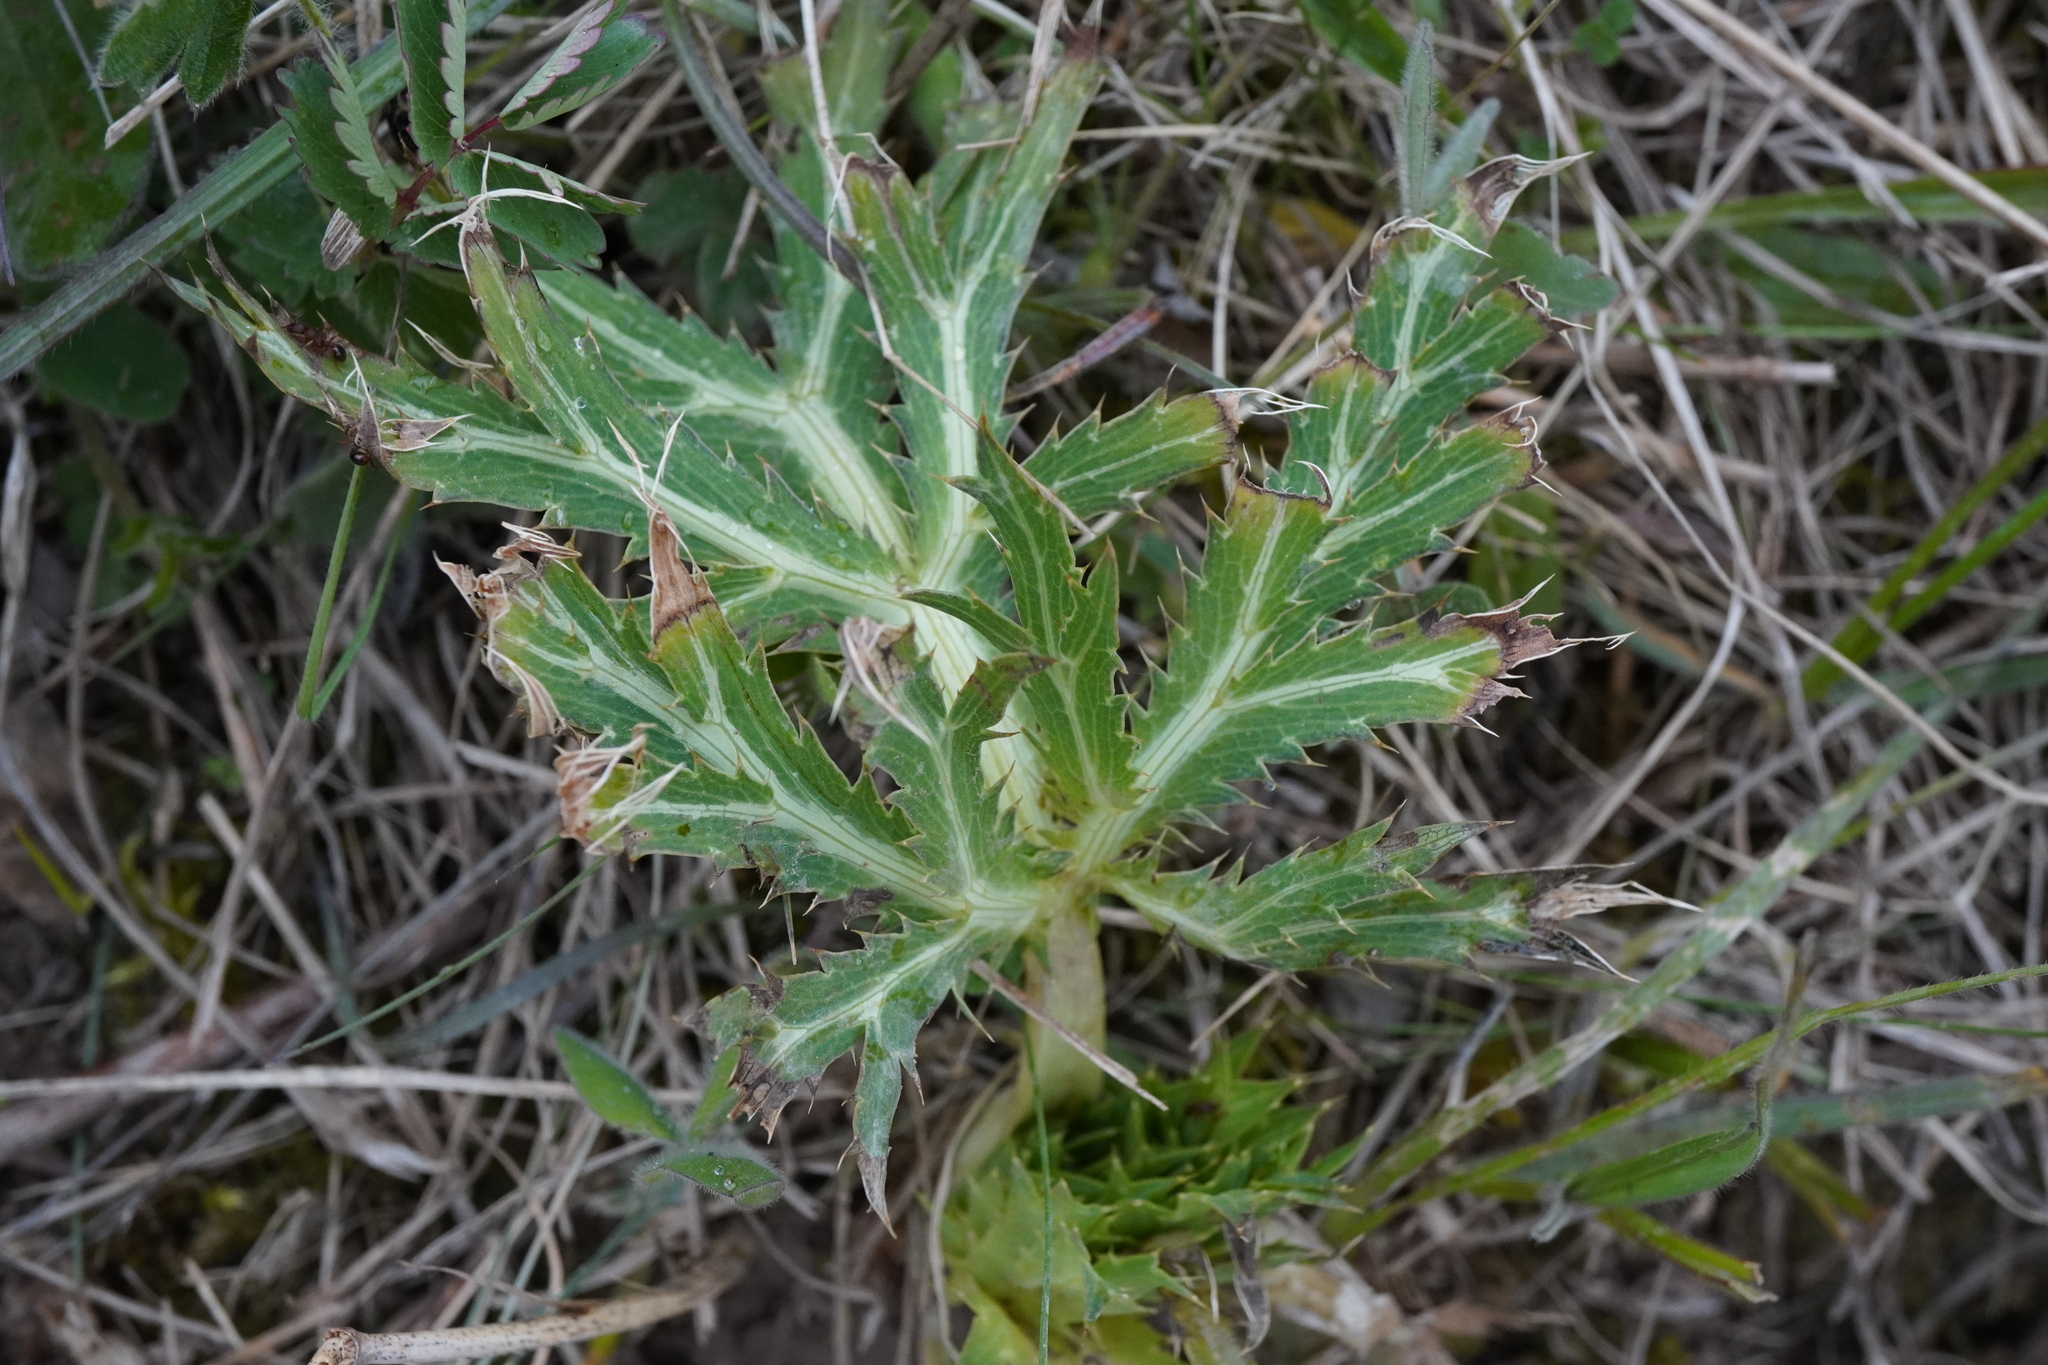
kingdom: Plantae
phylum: Tracheophyta
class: Magnoliopsida
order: Apiales
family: Apiaceae
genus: Eryngium
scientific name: Eryngium campestre
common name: Field eryngo
